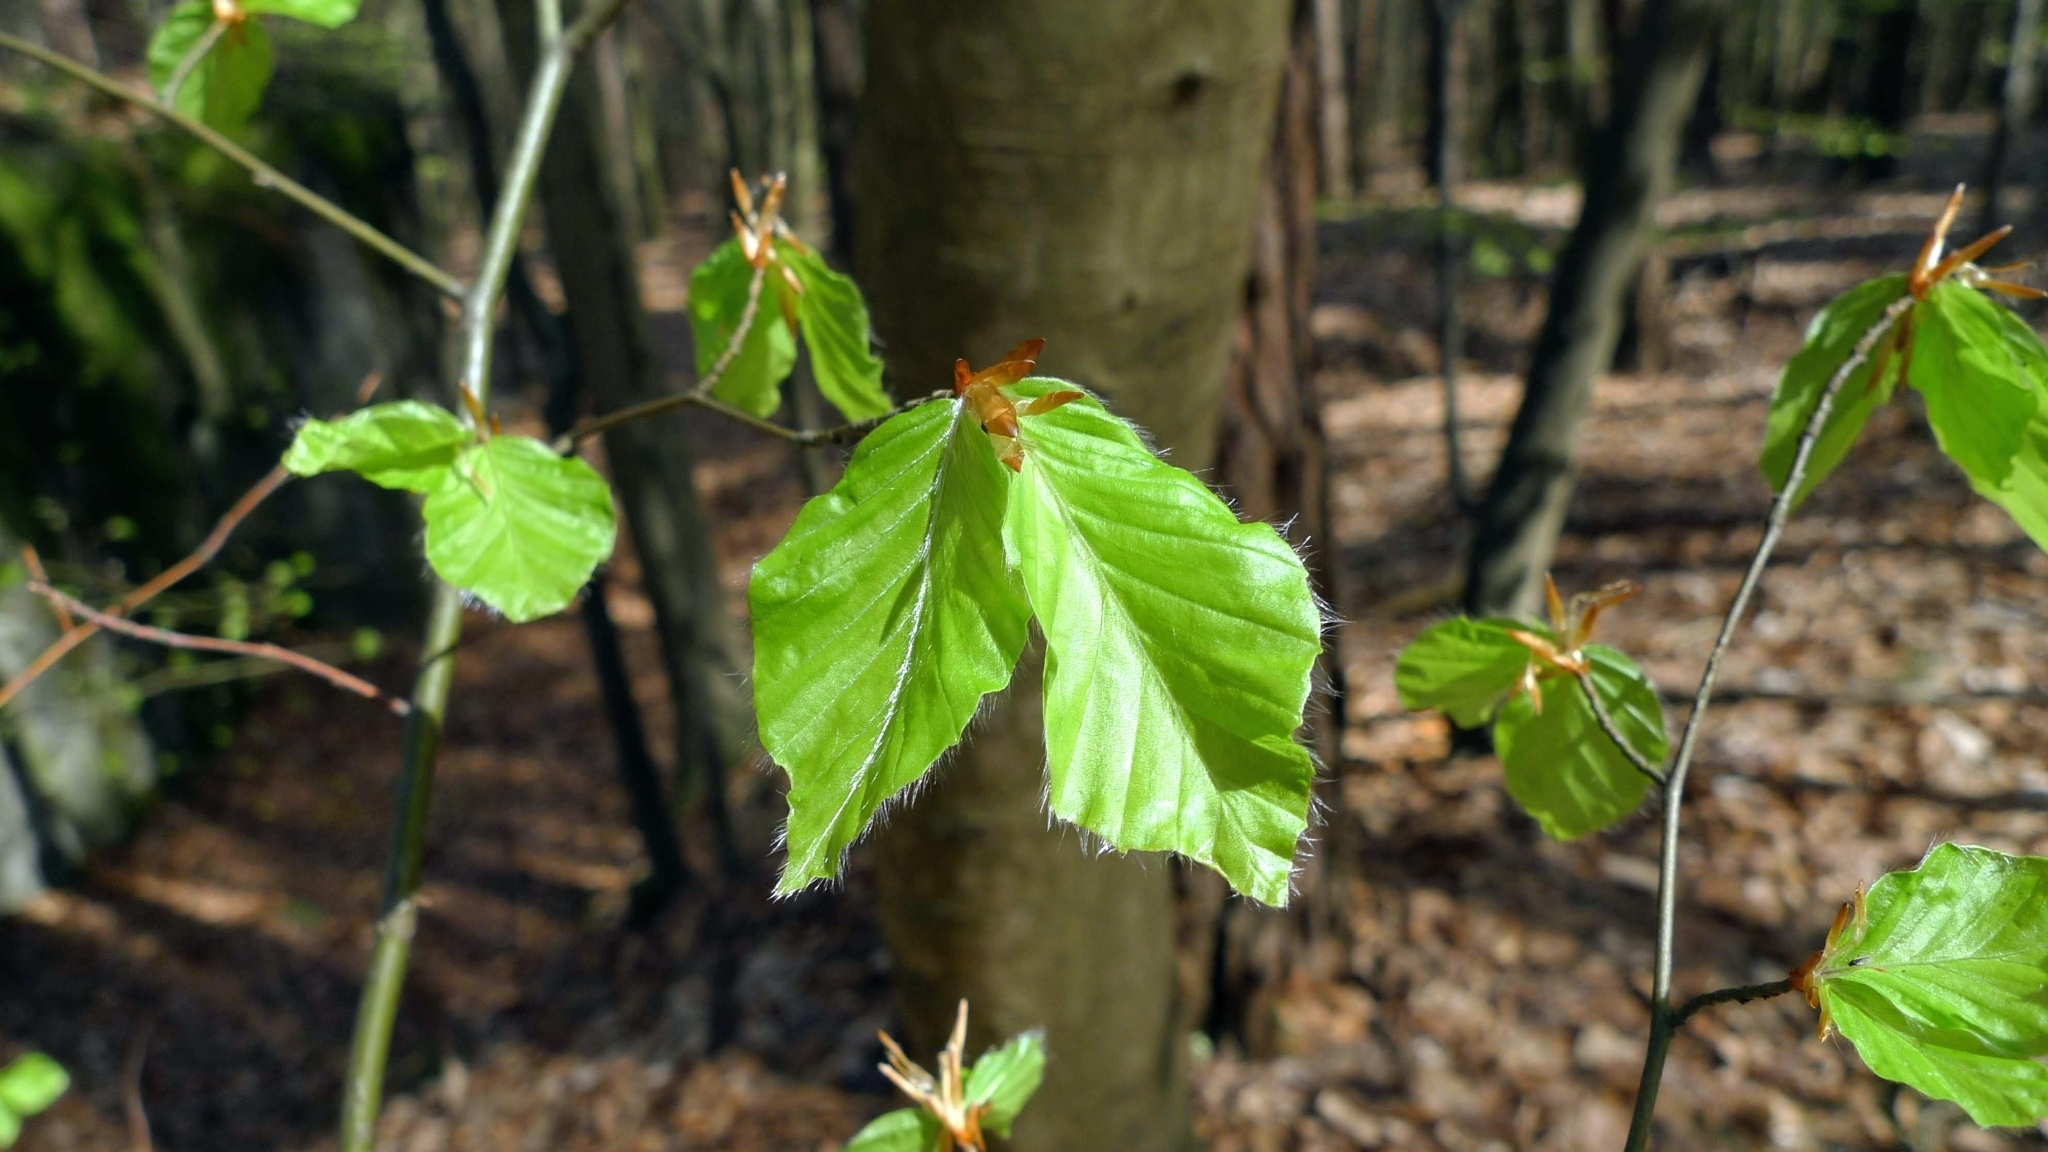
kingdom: Plantae
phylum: Tracheophyta
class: Magnoliopsida
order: Fagales
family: Fagaceae
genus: Fagus
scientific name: Fagus sylvatica
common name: Beech
